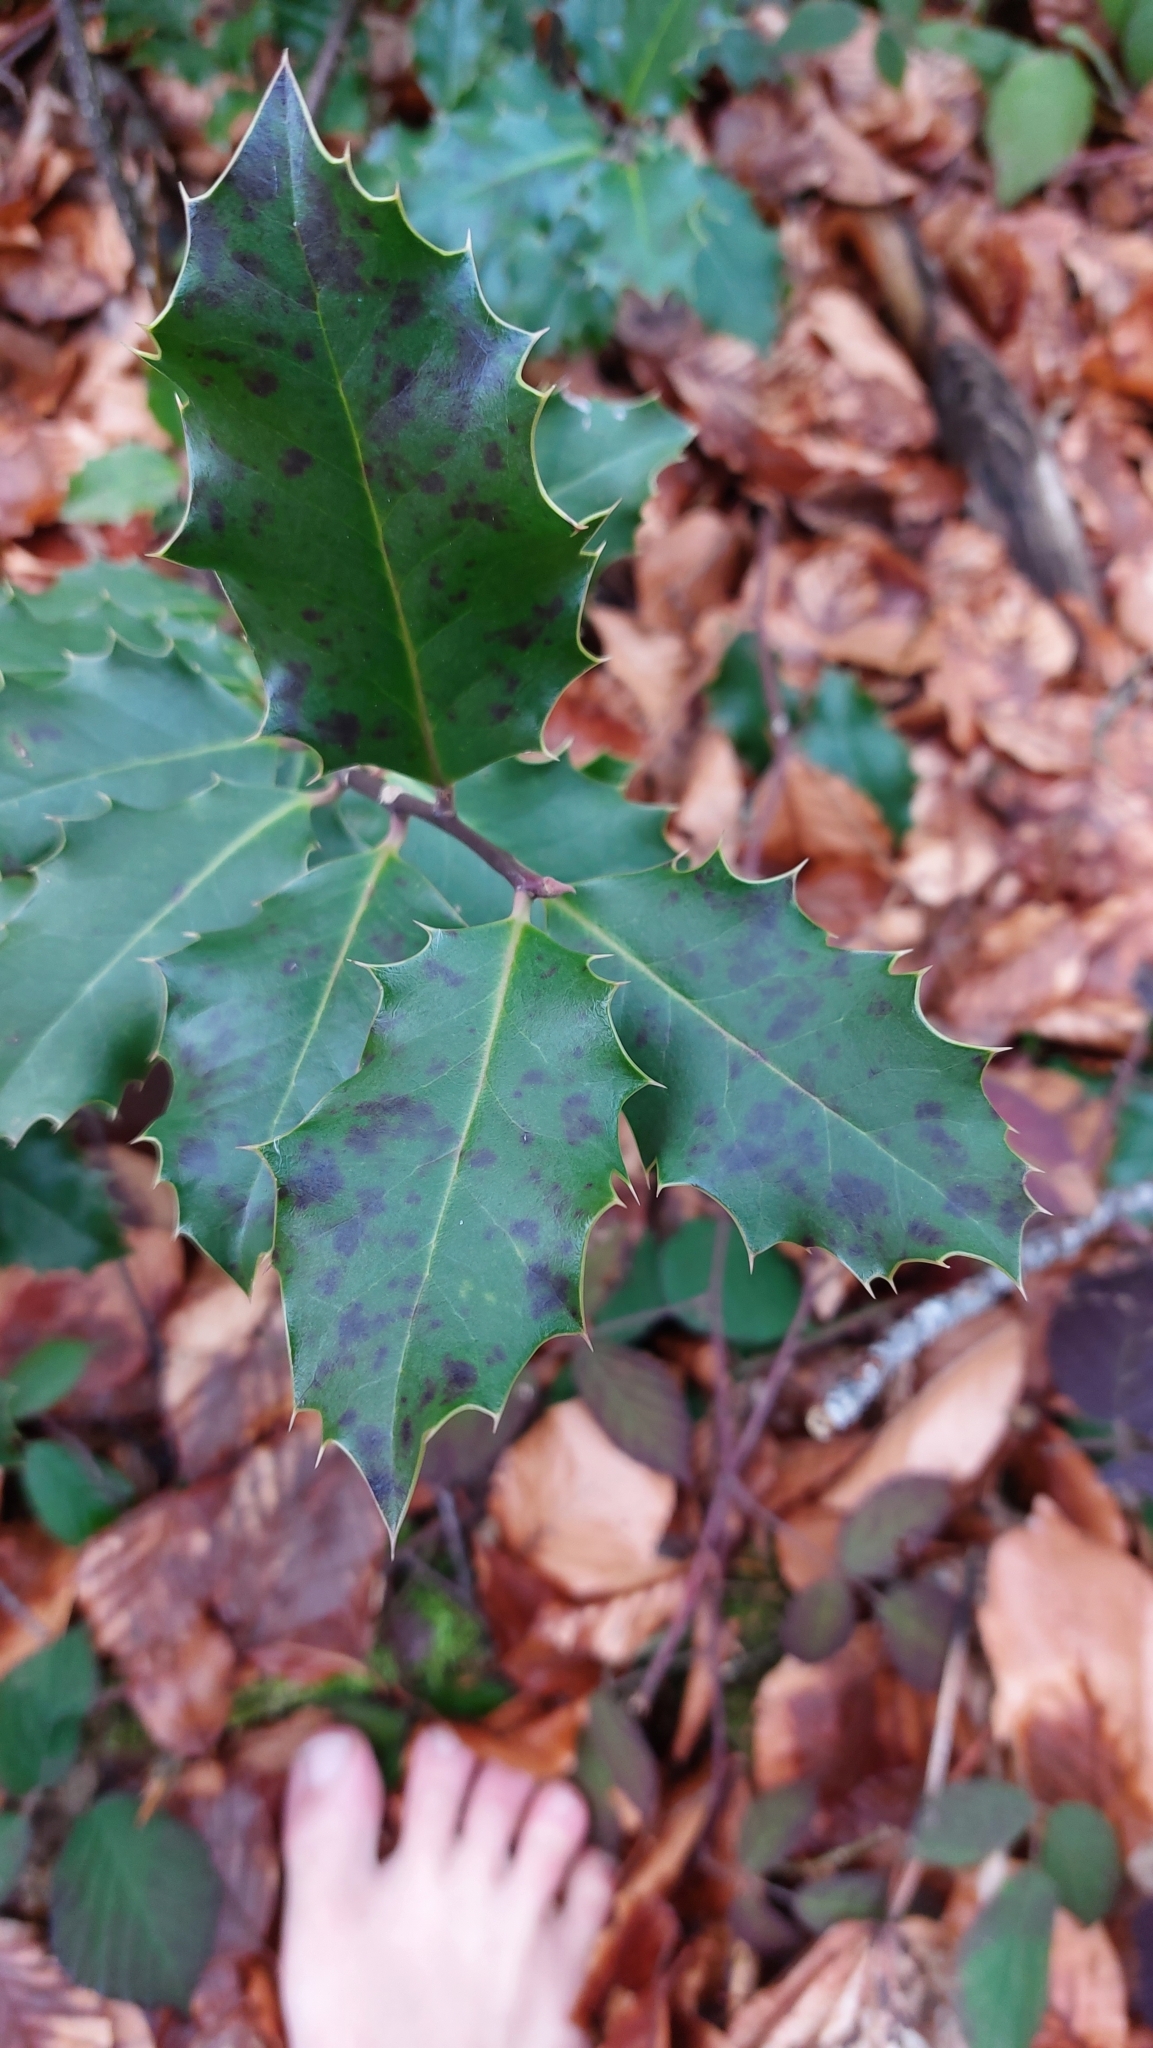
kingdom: Plantae
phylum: Tracheophyta
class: Magnoliopsida
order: Aquifoliales
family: Aquifoliaceae
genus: Ilex
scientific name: Ilex aquifolium
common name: English holly
